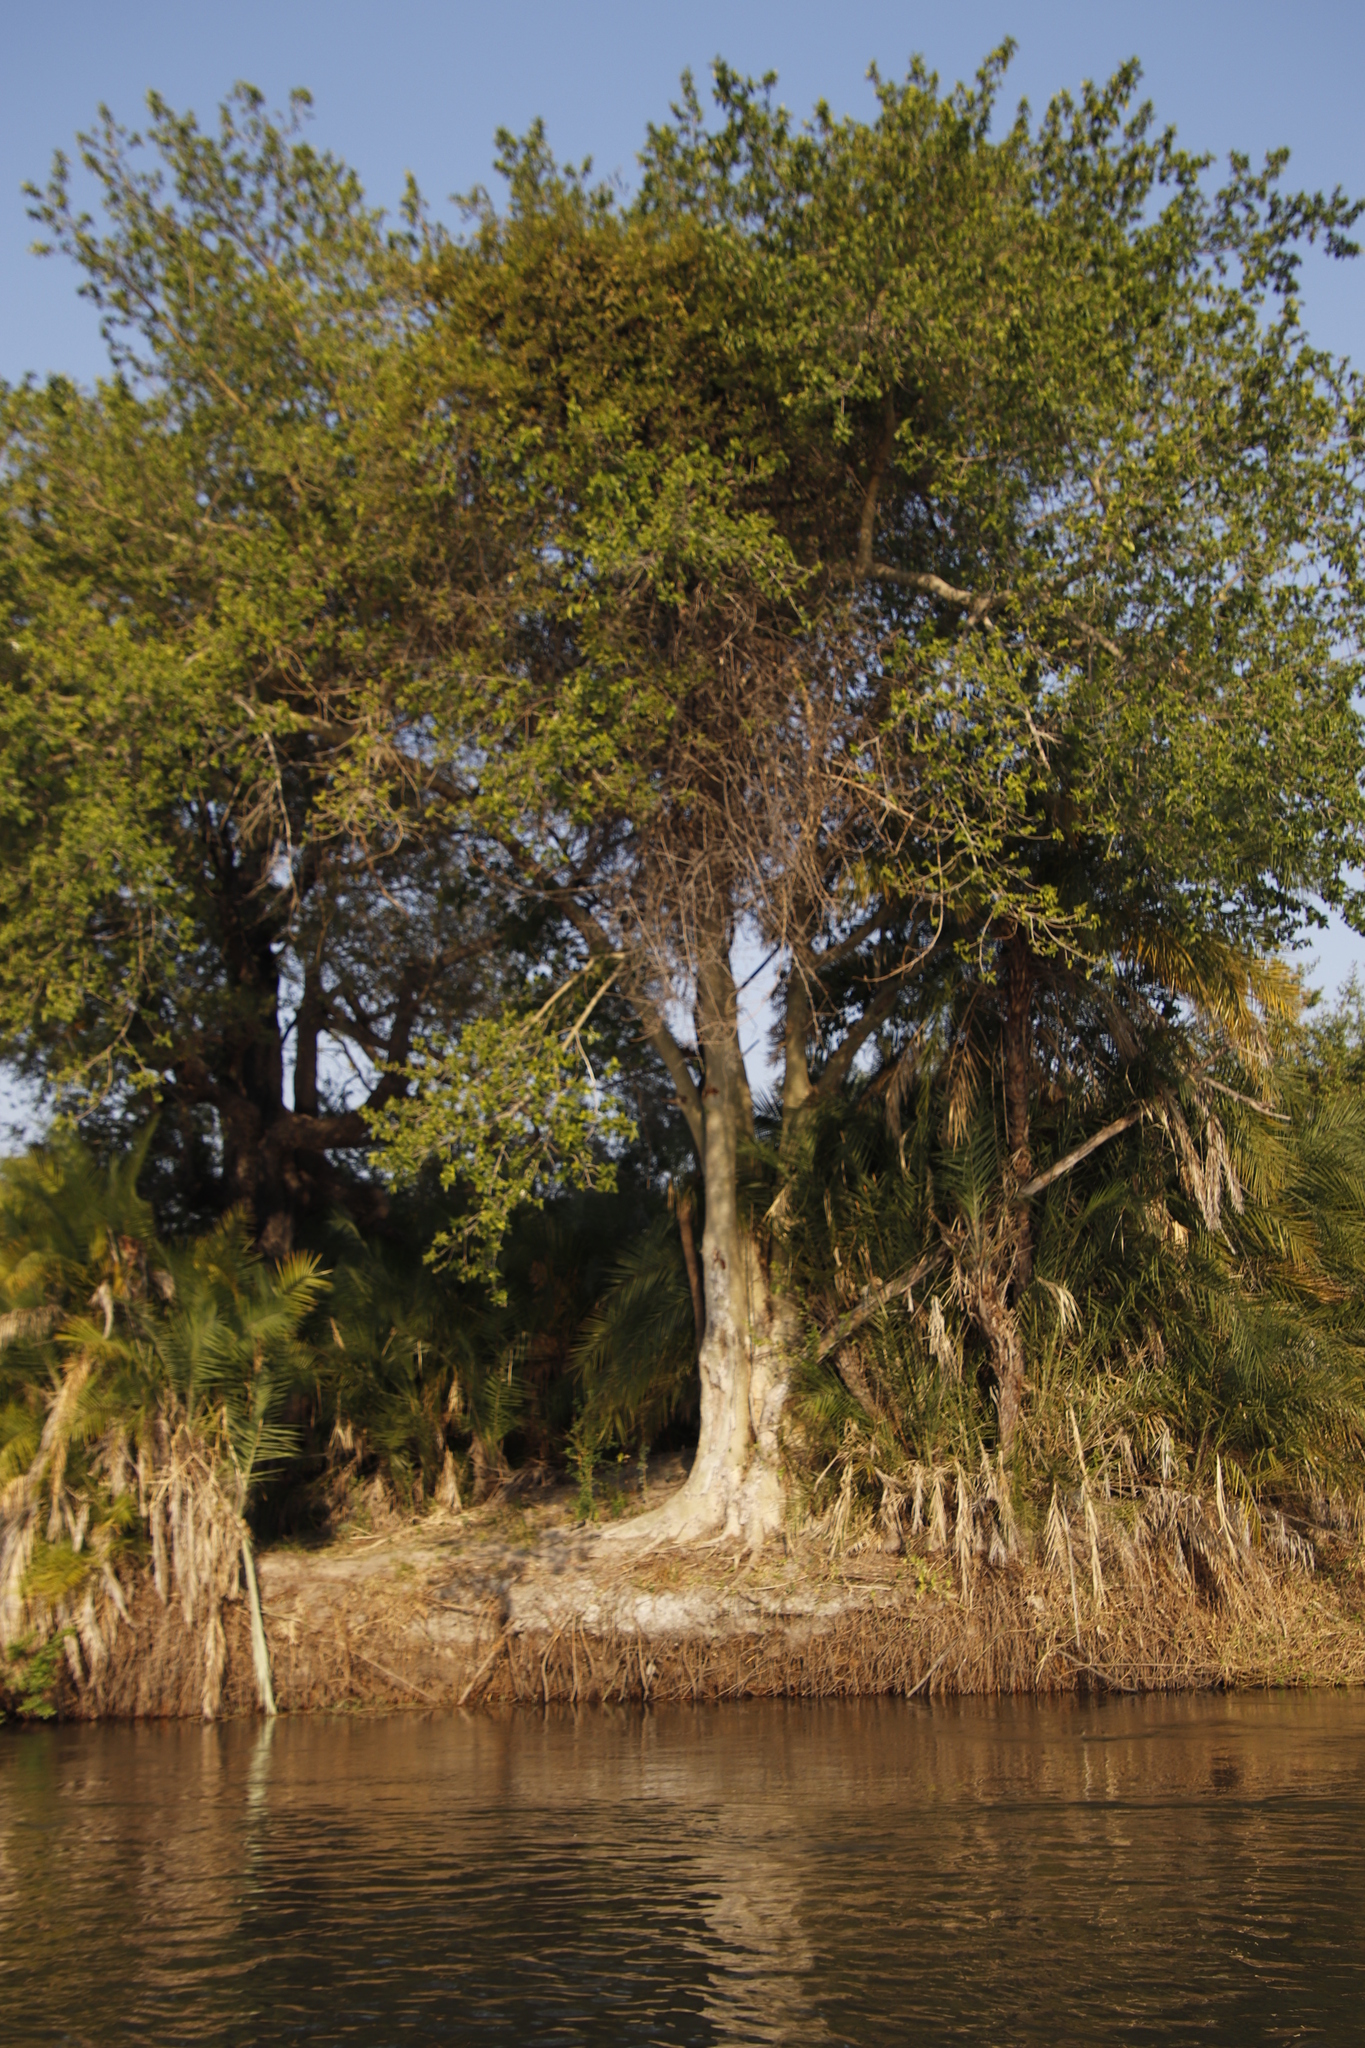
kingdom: Plantae
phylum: Tracheophyta
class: Magnoliopsida
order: Rosales
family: Moraceae
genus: Ficus
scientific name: Ficus sycomorus
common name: Sycomore
